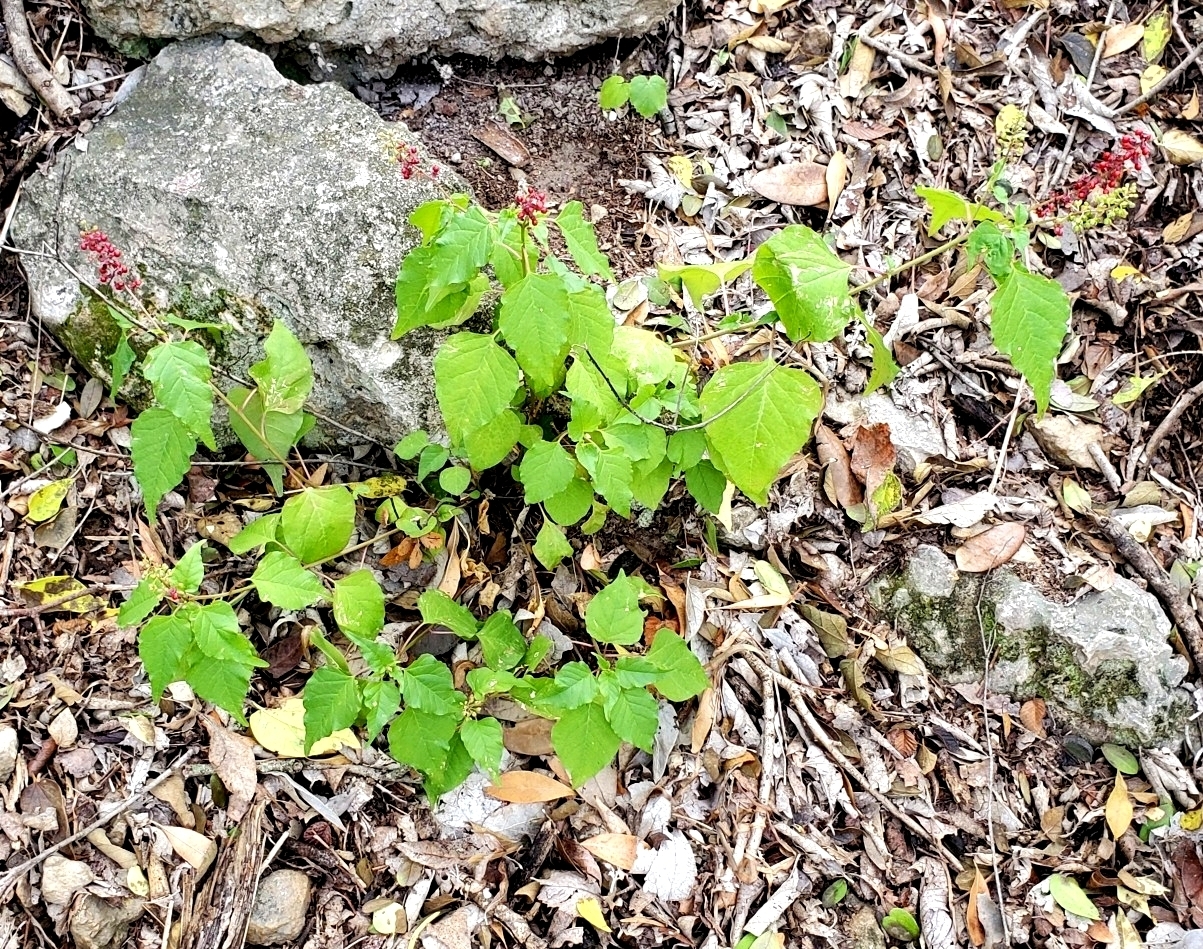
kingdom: Plantae
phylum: Tracheophyta
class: Magnoliopsida
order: Caryophyllales
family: Phytolaccaceae
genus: Rivina
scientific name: Rivina humilis
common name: Rougeplant
